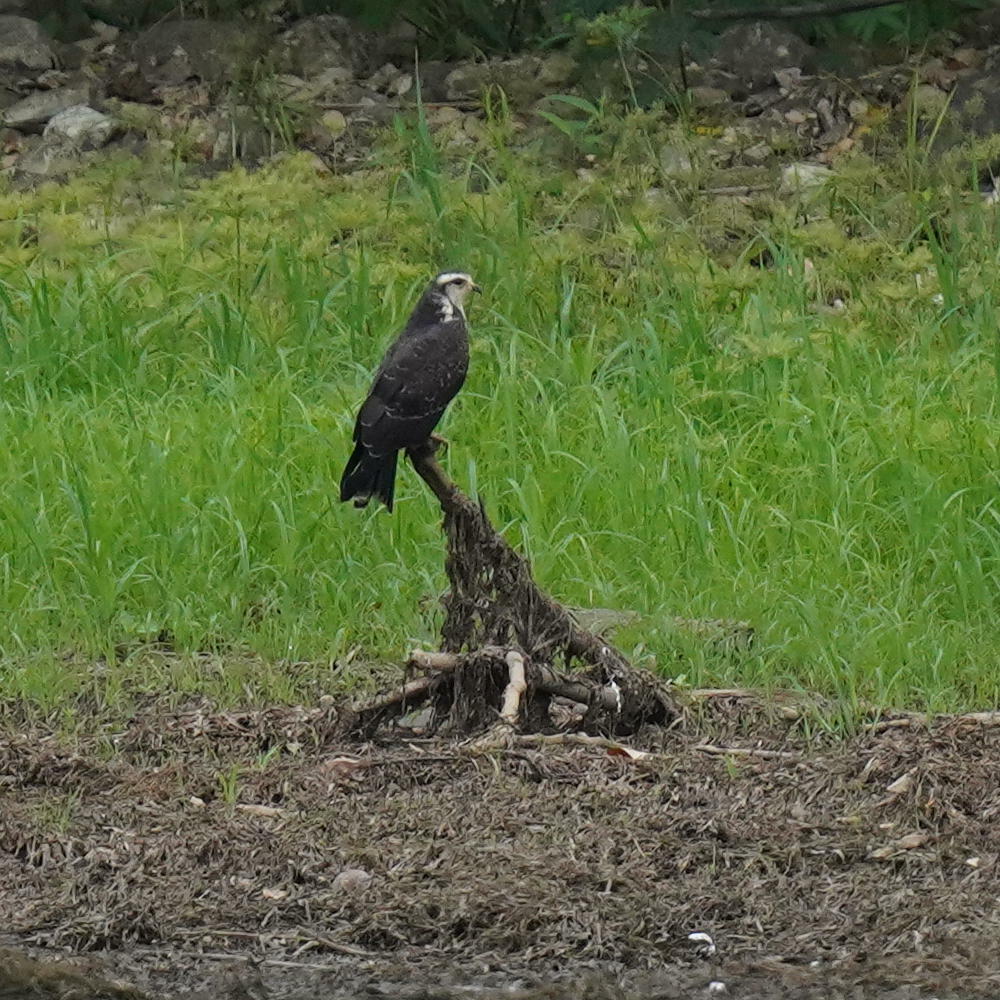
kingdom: Animalia
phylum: Chordata
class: Aves
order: Accipitriformes
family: Accipitridae
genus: Rostrhamus
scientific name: Rostrhamus sociabilis
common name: Snail kite
